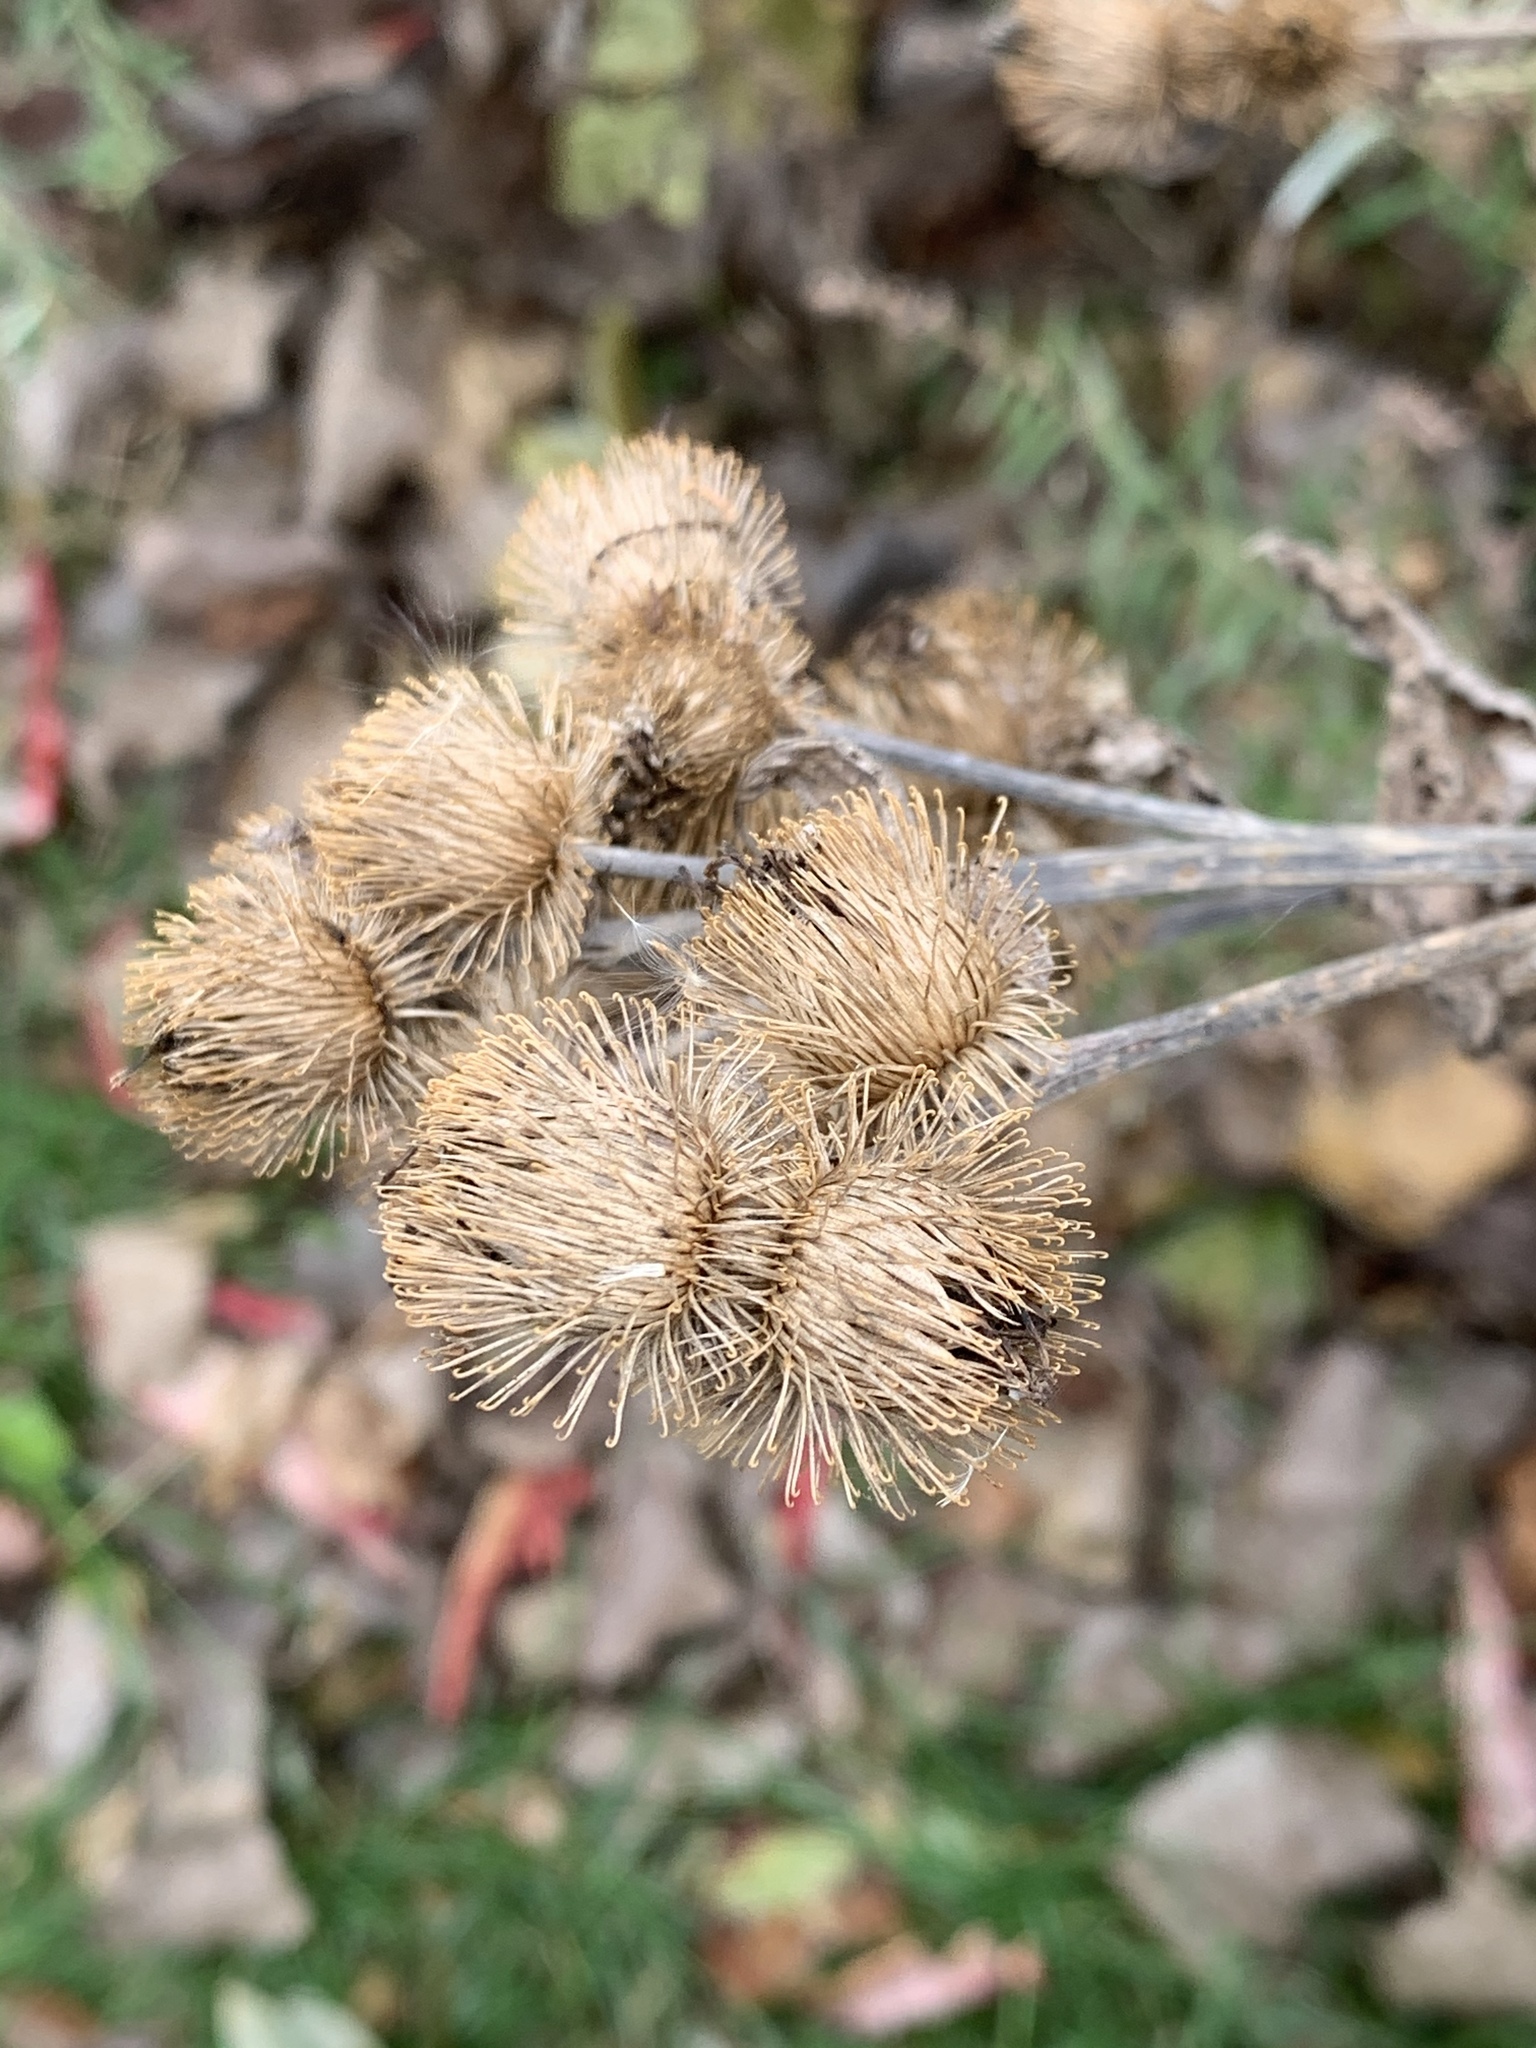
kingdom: Plantae
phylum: Tracheophyta
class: Magnoliopsida
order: Asterales
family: Asteraceae
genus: Arctium
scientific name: Arctium minus
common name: Lesser burdock
